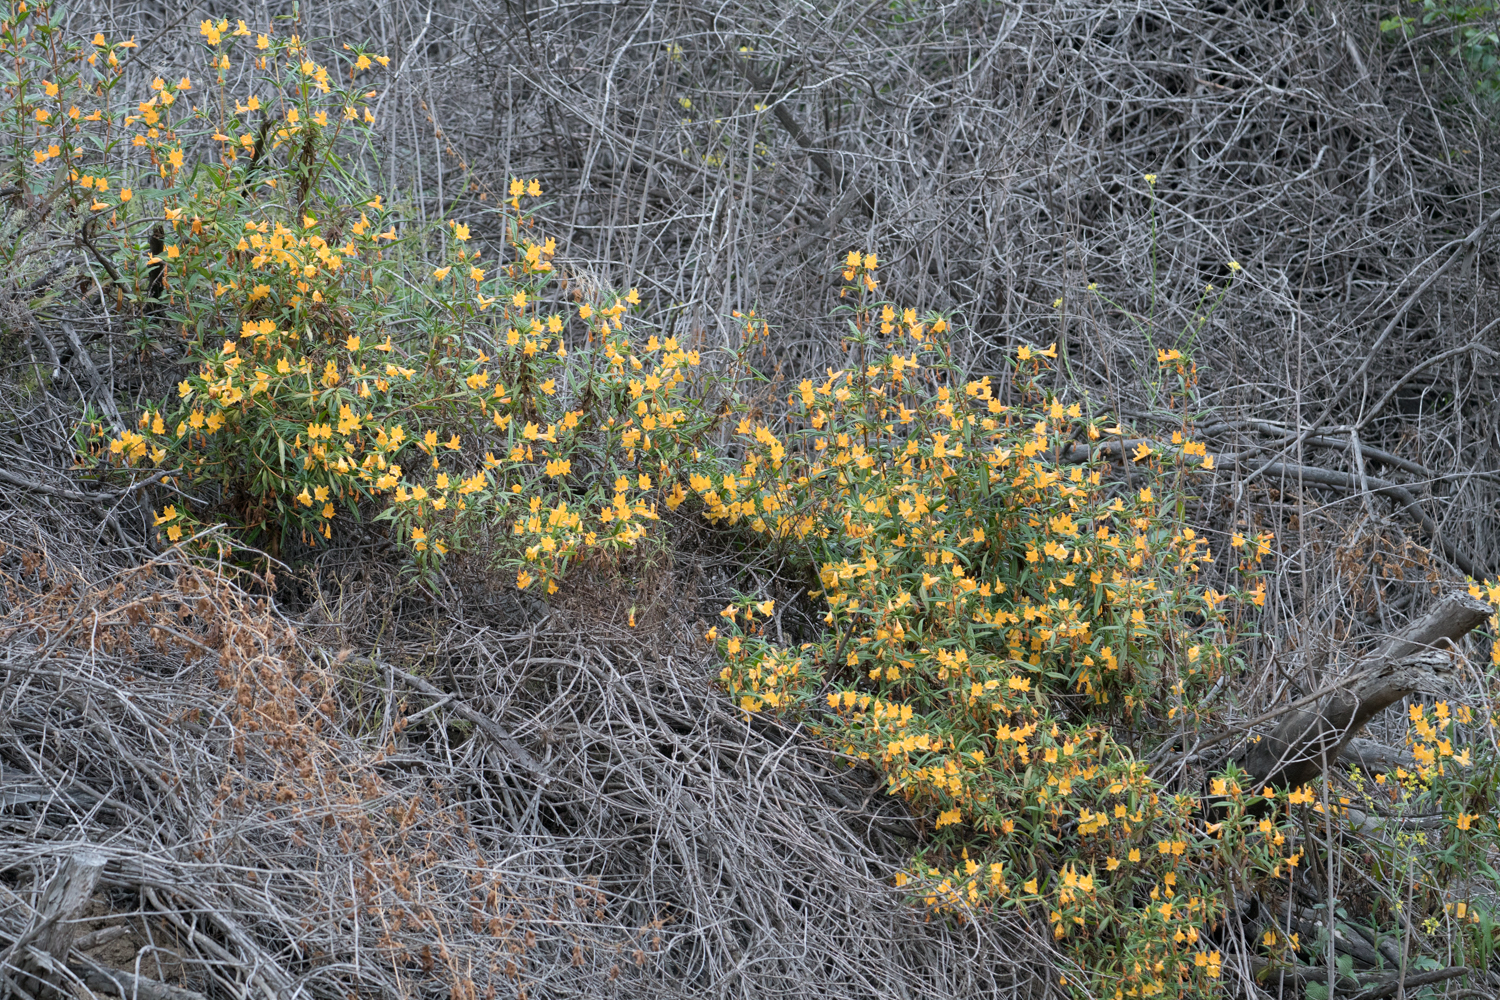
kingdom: Plantae
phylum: Tracheophyta
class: Magnoliopsida
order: Lamiales
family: Phrymaceae
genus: Diplacus
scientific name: Diplacus longiflorus
